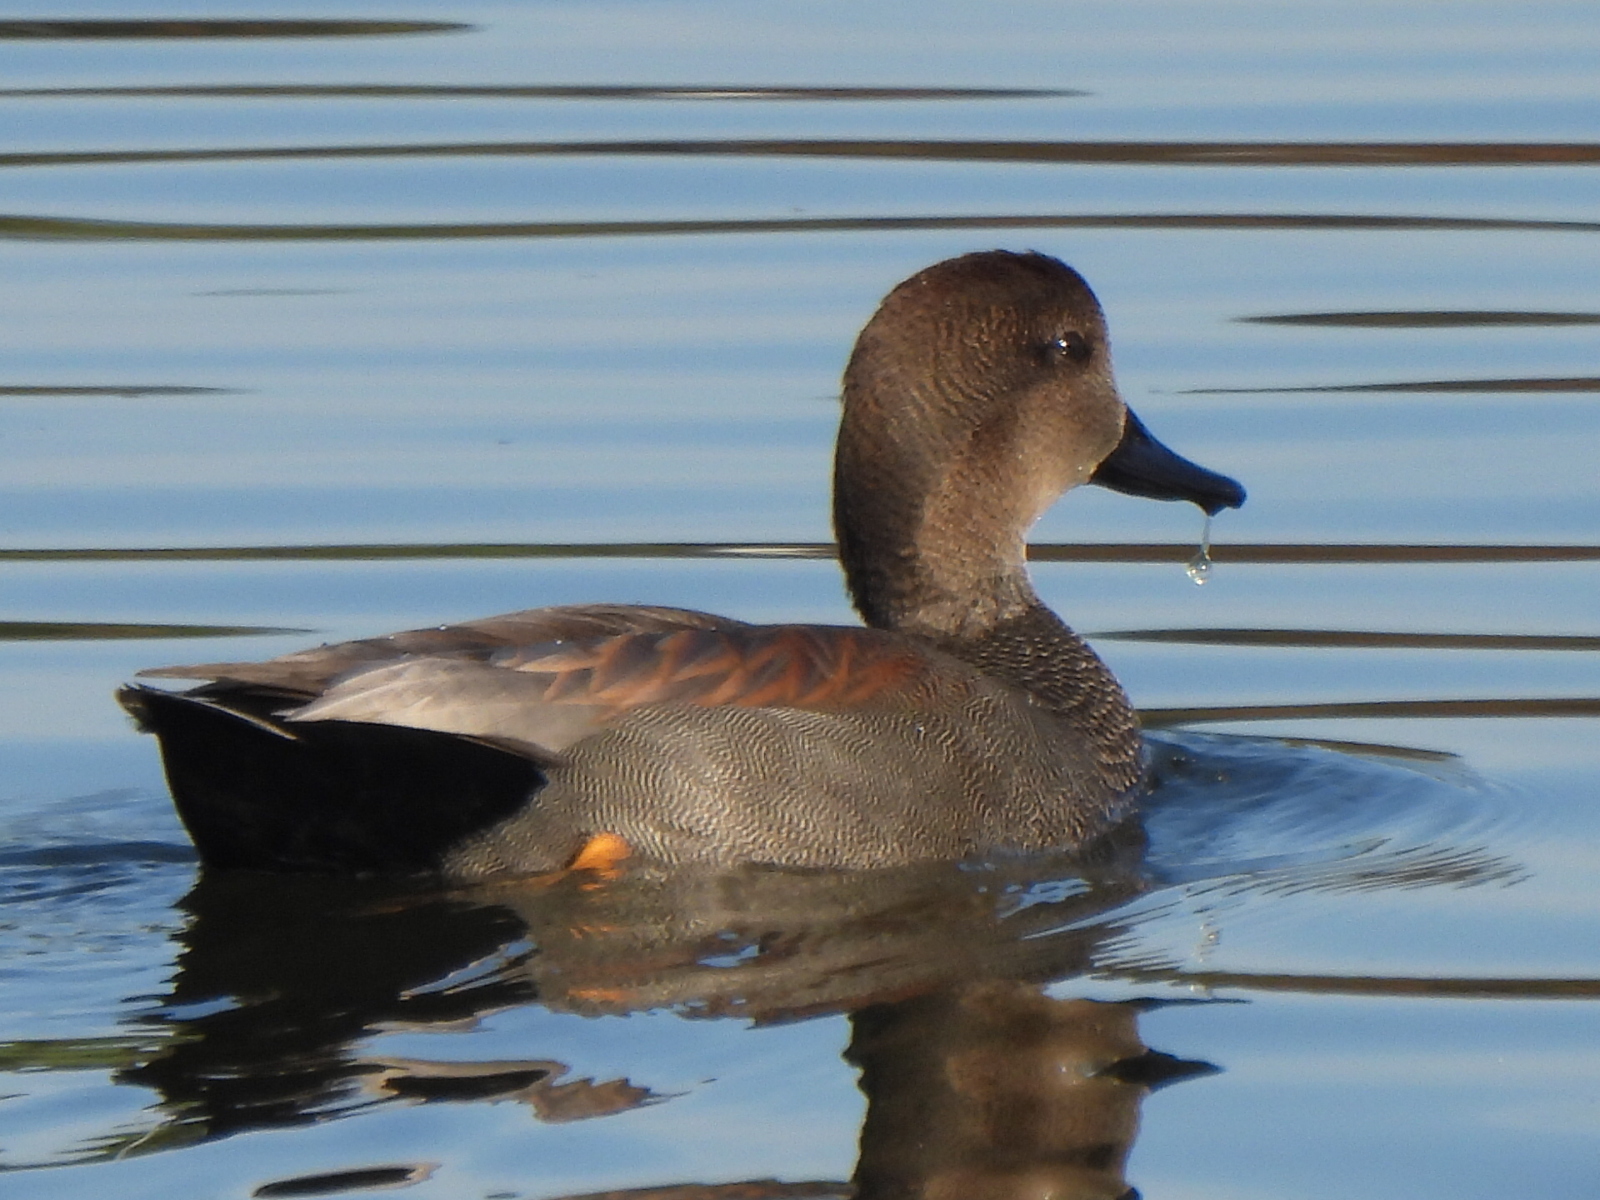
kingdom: Animalia
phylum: Chordata
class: Aves
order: Anseriformes
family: Anatidae
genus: Mareca
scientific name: Mareca strepera
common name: Gadwall
